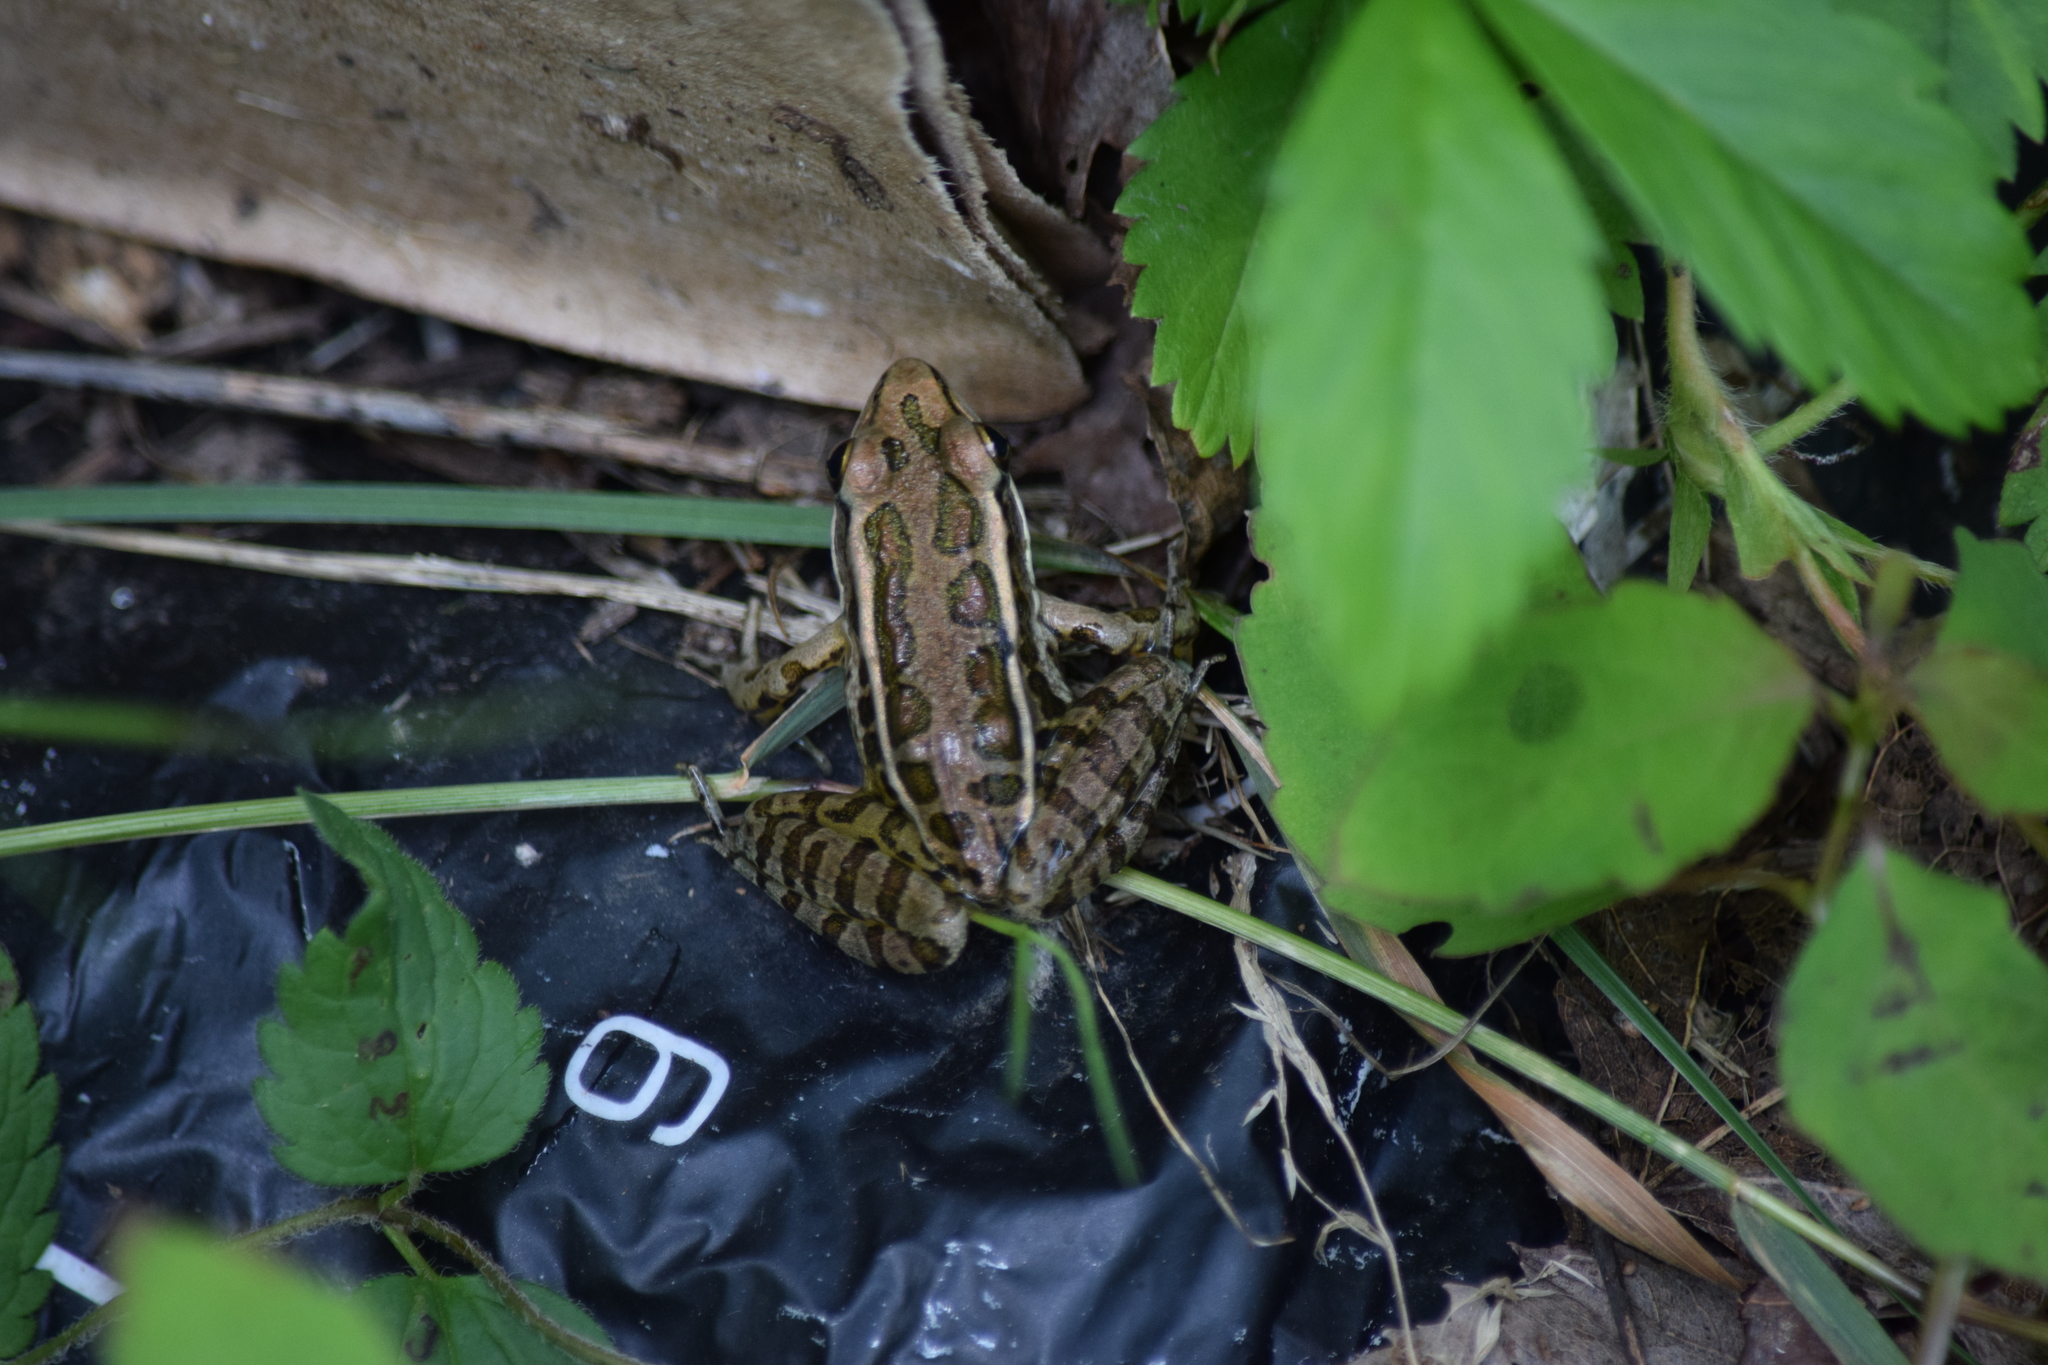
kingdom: Animalia
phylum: Chordata
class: Amphibia
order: Anura
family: Ranidae
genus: Lithobates
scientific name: Lithobates palustris
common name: Pickerel frog
